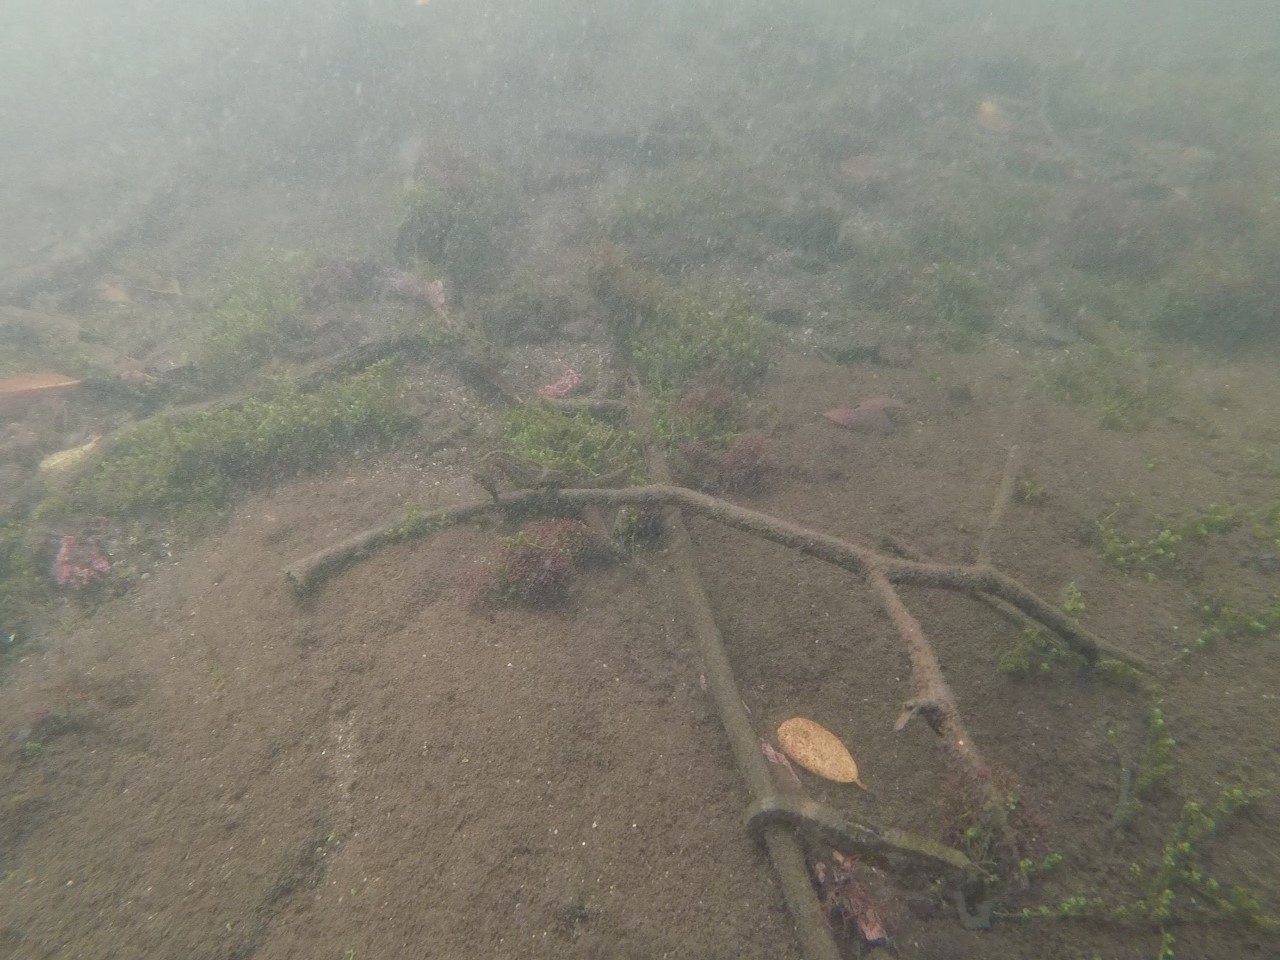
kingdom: Animalia
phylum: Chordata
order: Syngnathiformes
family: Syngnathidae
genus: Hippocampus
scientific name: Hippocampus ingens
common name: Giant seahorse
